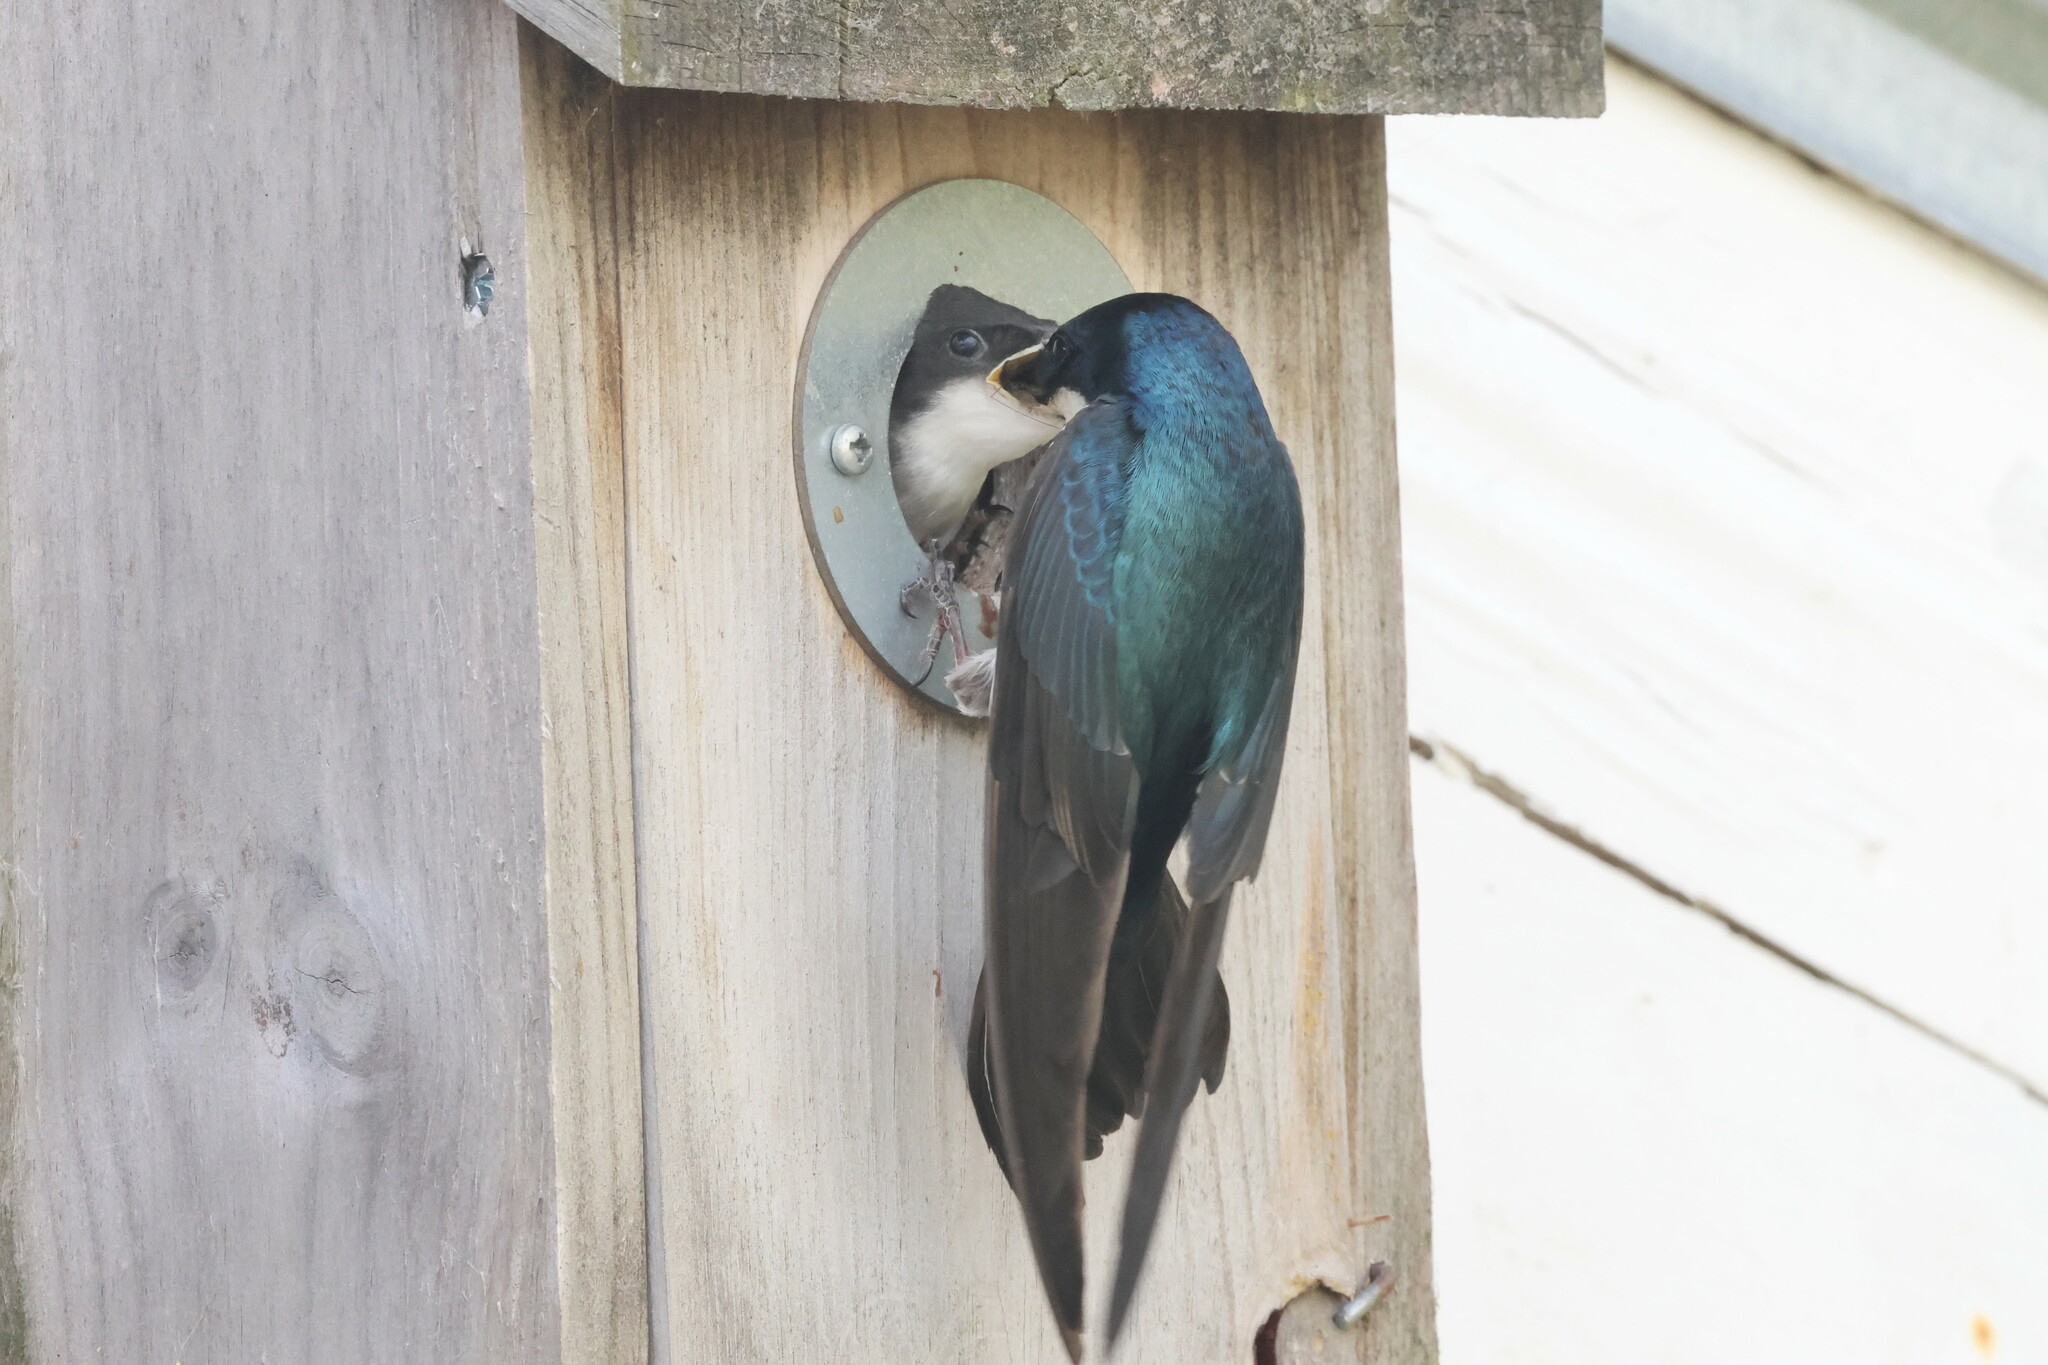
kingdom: Animalia
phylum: Chordata
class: Aves
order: Passeriformes
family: Hirundinidae
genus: Tachycineta
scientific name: Tachycineta bicolor
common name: Tree swallow
